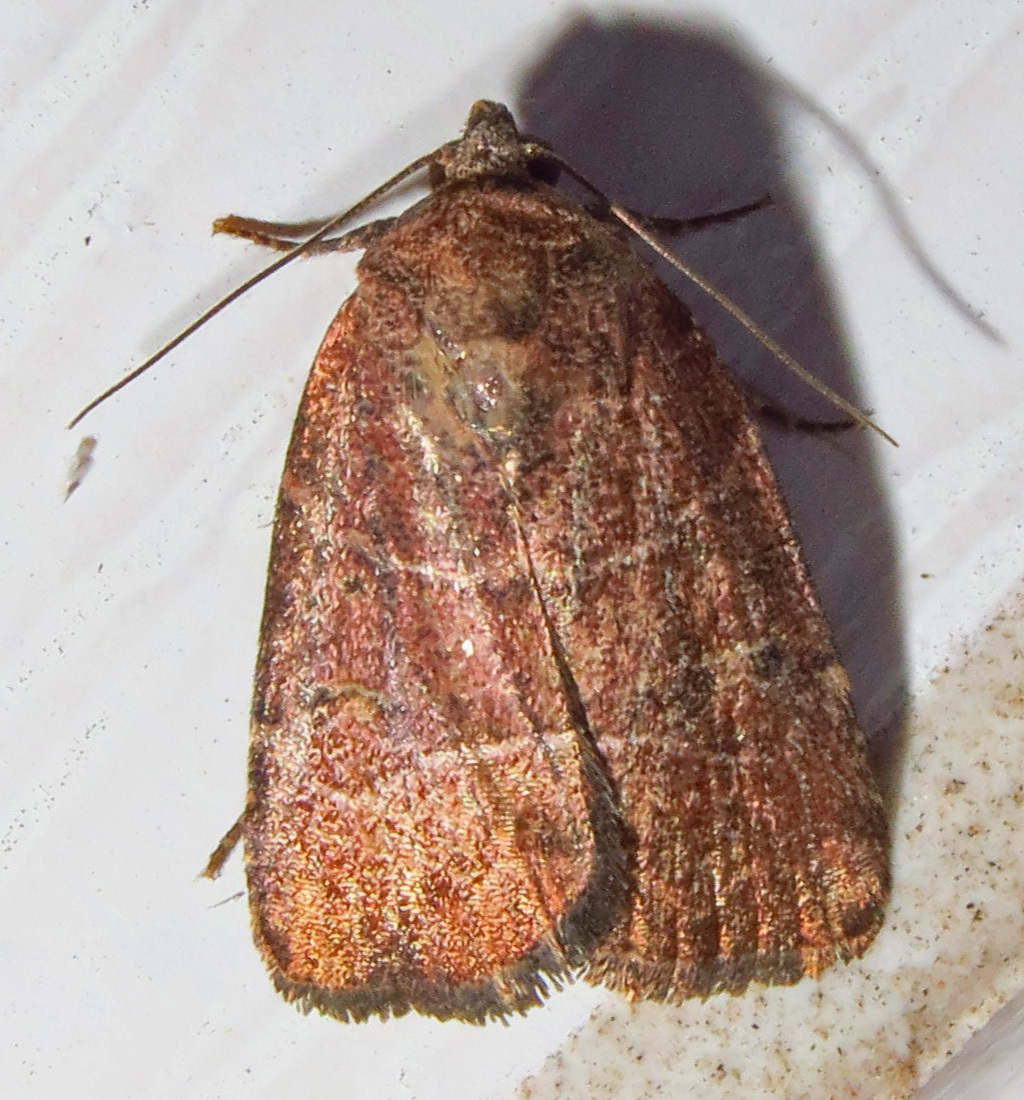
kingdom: Animalia
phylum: Arthropoda
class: Insecta
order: Lepidoptera
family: Noctuidae
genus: Elaphria
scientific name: Elaphria grata
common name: Grateful midget moth
